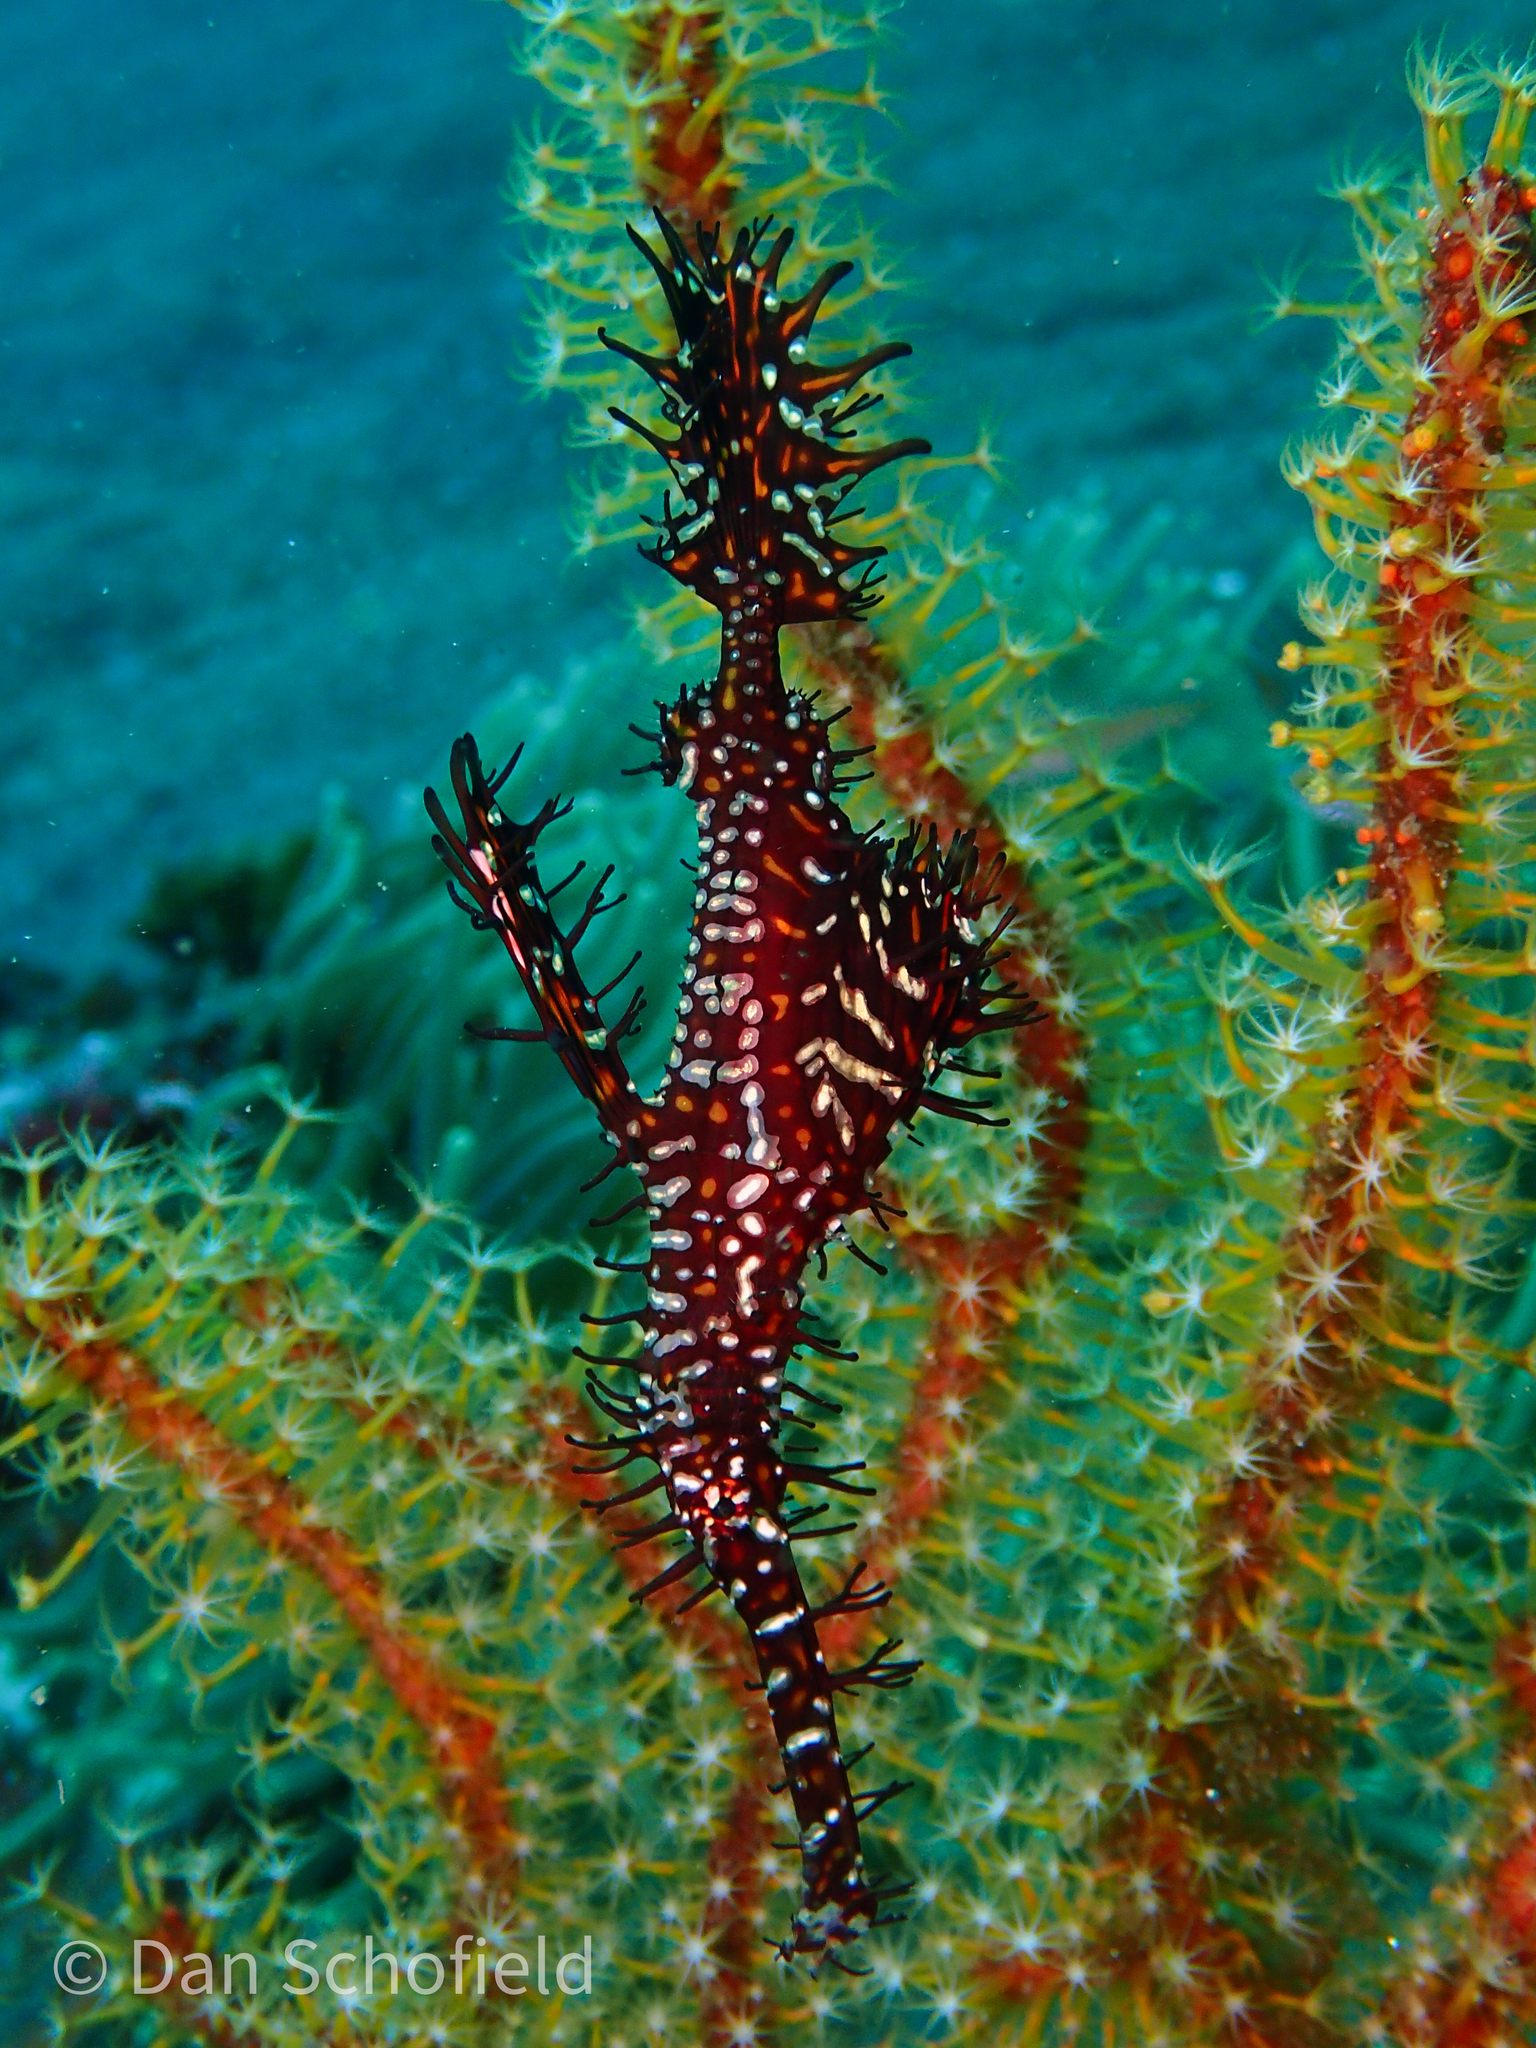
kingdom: Animalia
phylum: Chordata
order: Syngnathiformes
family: Solenostomidae
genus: Solenostomus
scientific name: Solenostomus paradoxus
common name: Ghost pipefish
